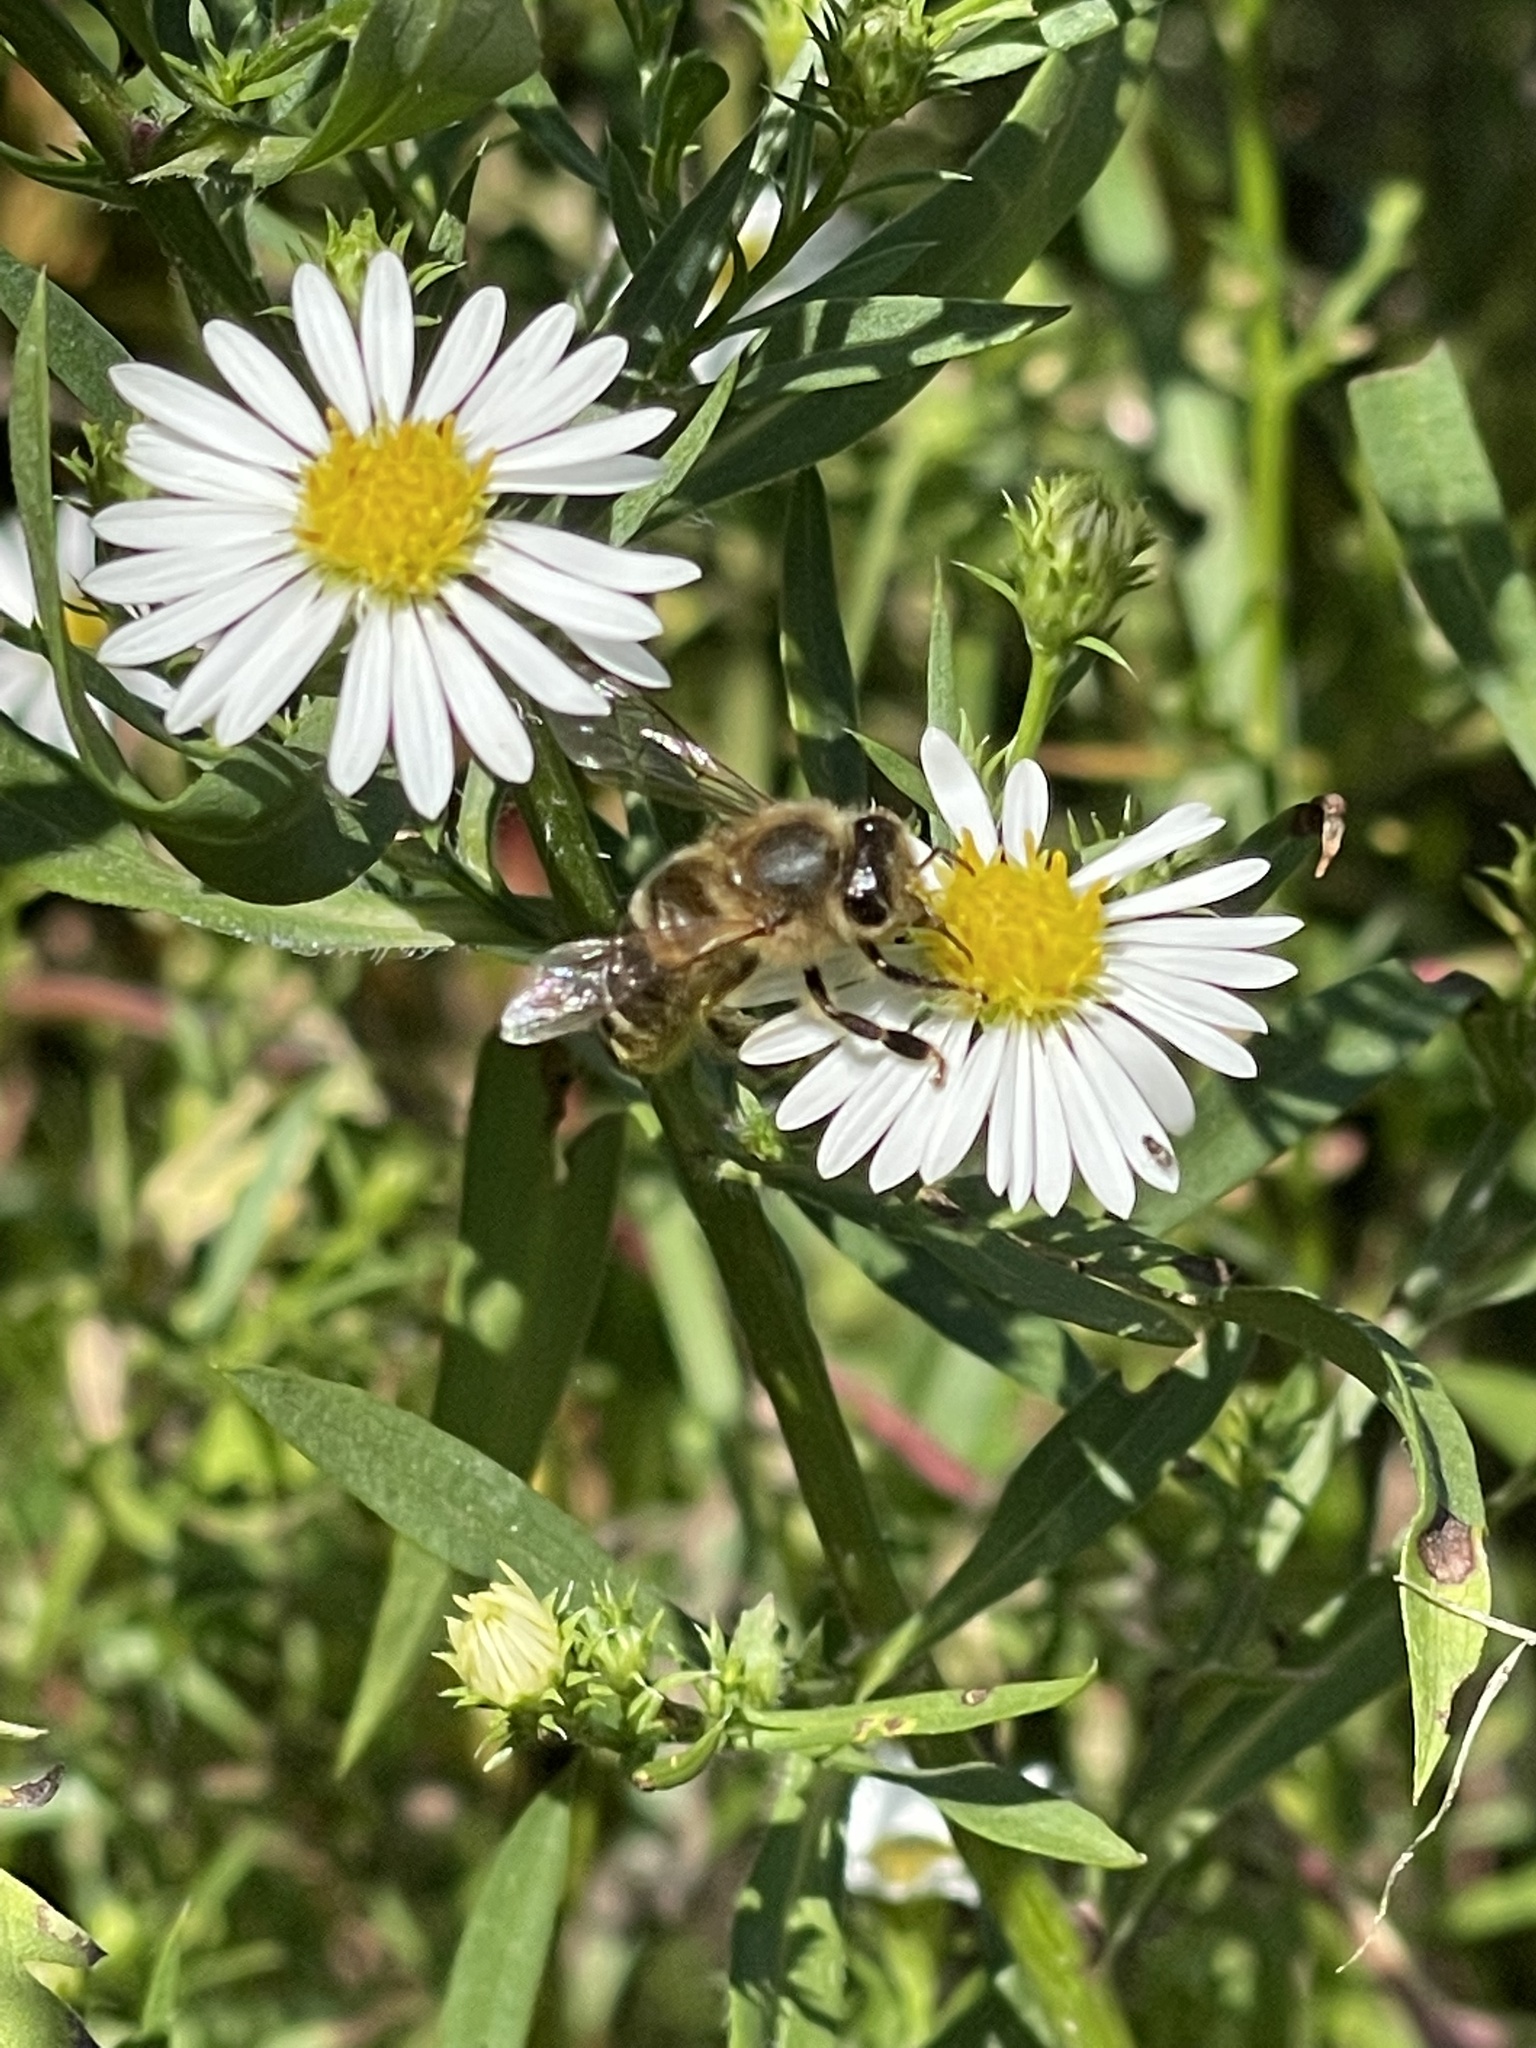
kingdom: Animalia
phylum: Arthropoda
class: Insecta
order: Hymenoptera
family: Apidae
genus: Apis
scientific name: Apis mellifera
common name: Honey bee
